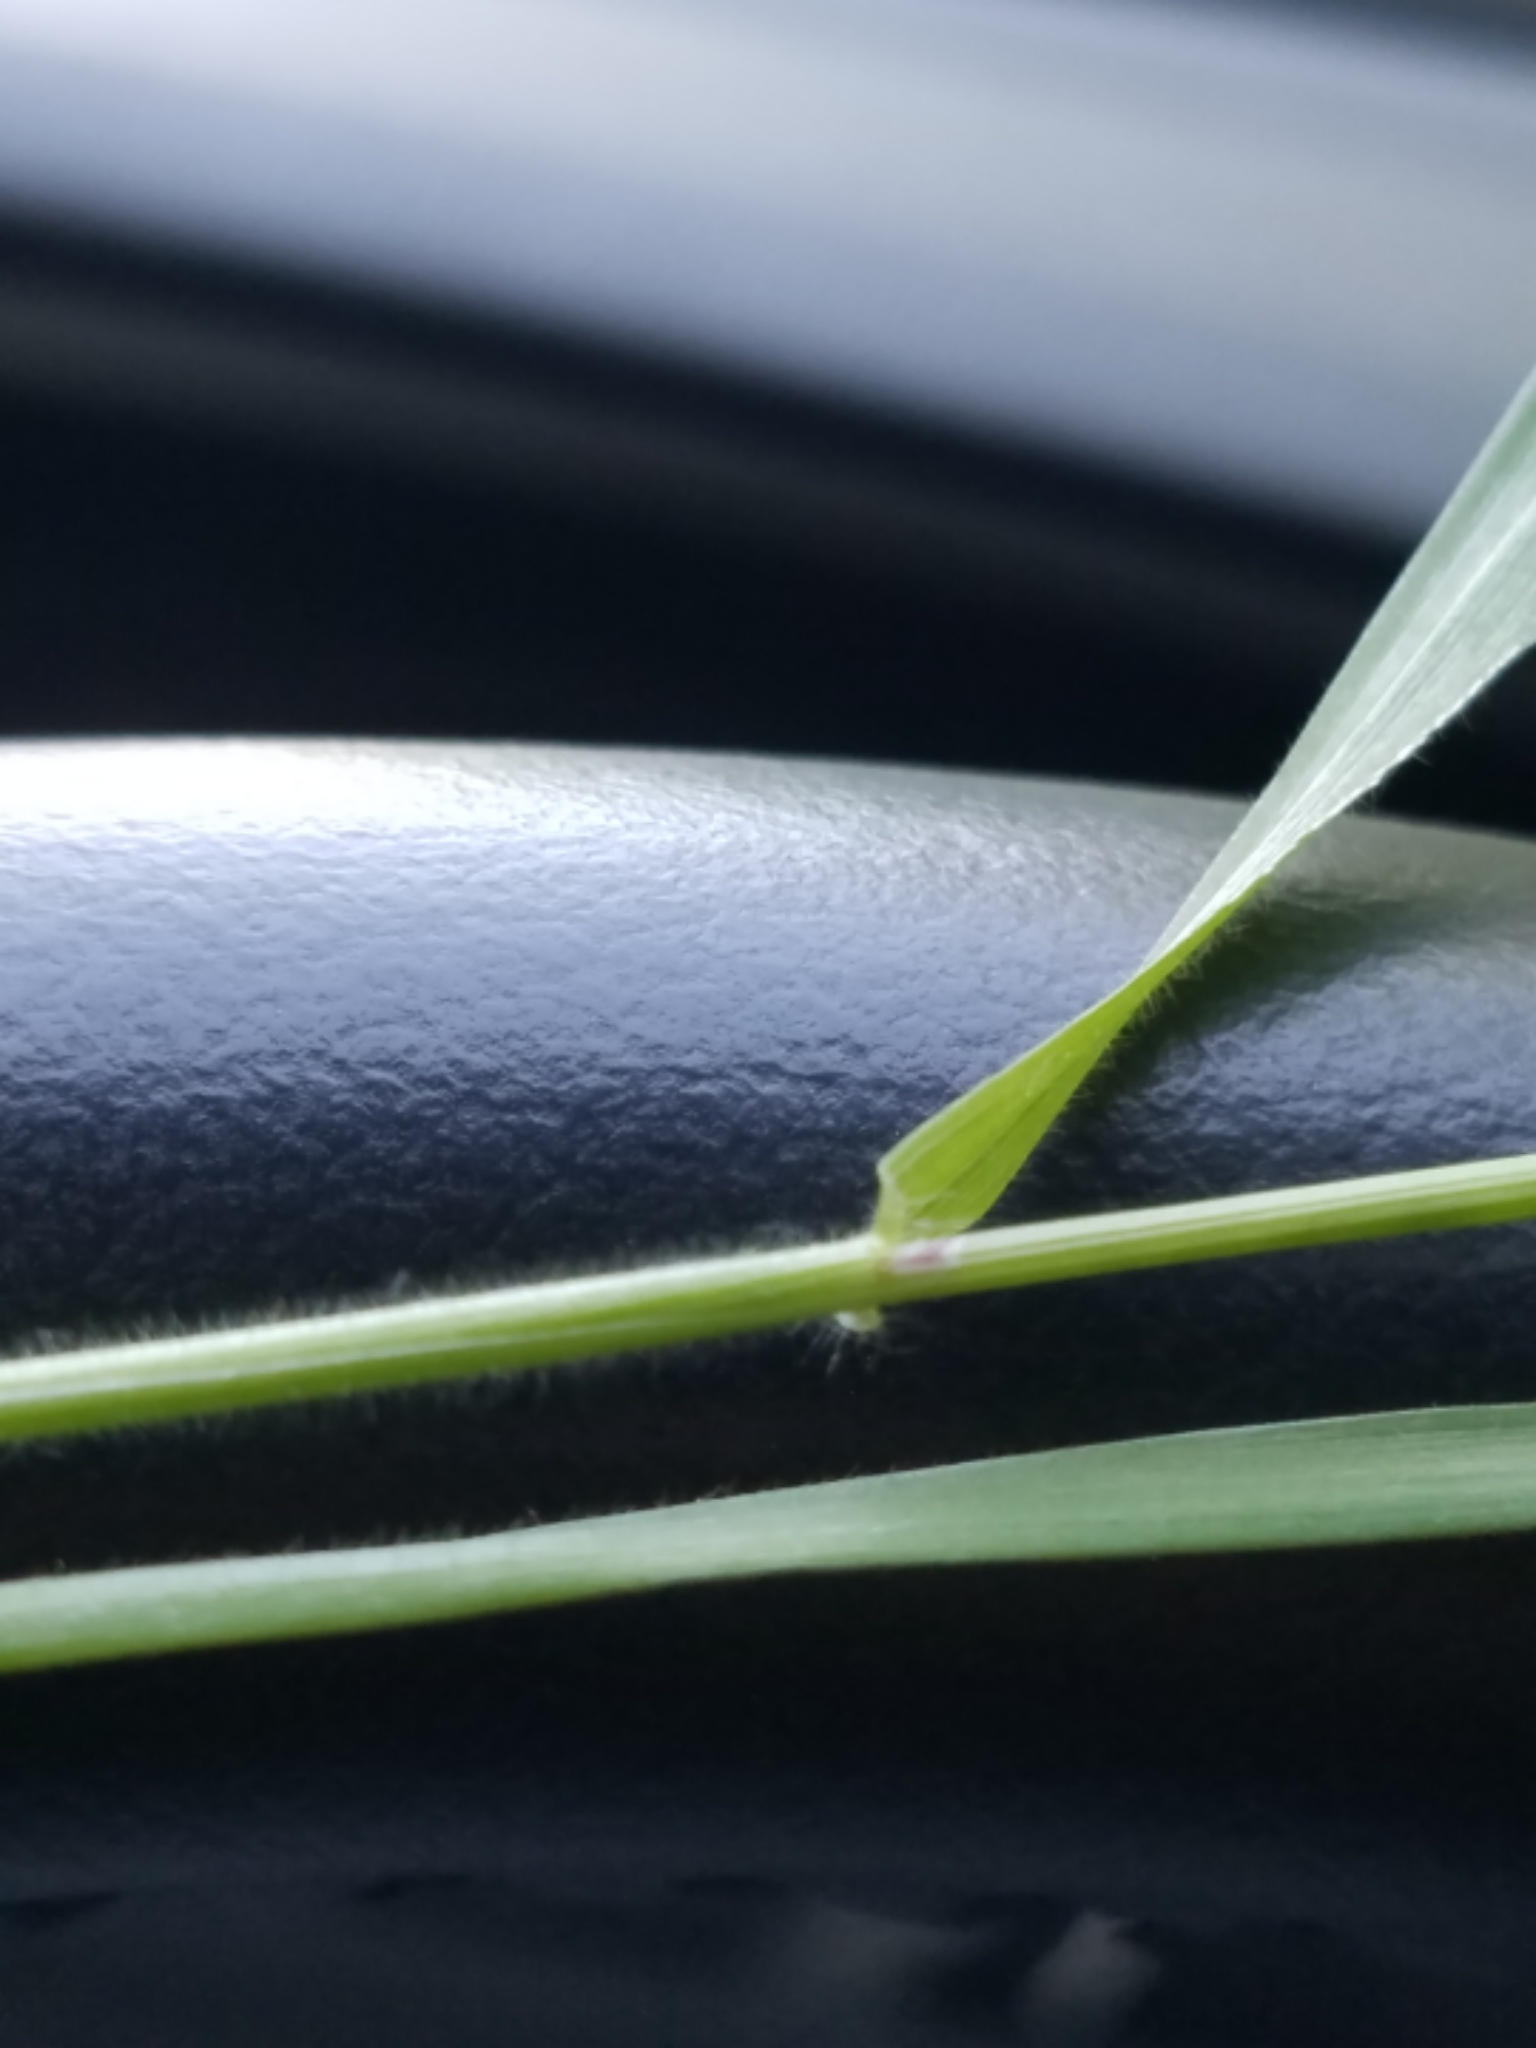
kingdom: Plantae
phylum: Tracheophyta
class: Liliopsida
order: Poales
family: Poaceae
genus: Anthoxanthum
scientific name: Anthoxanthum odoratum
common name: Sweet vernalgrass
